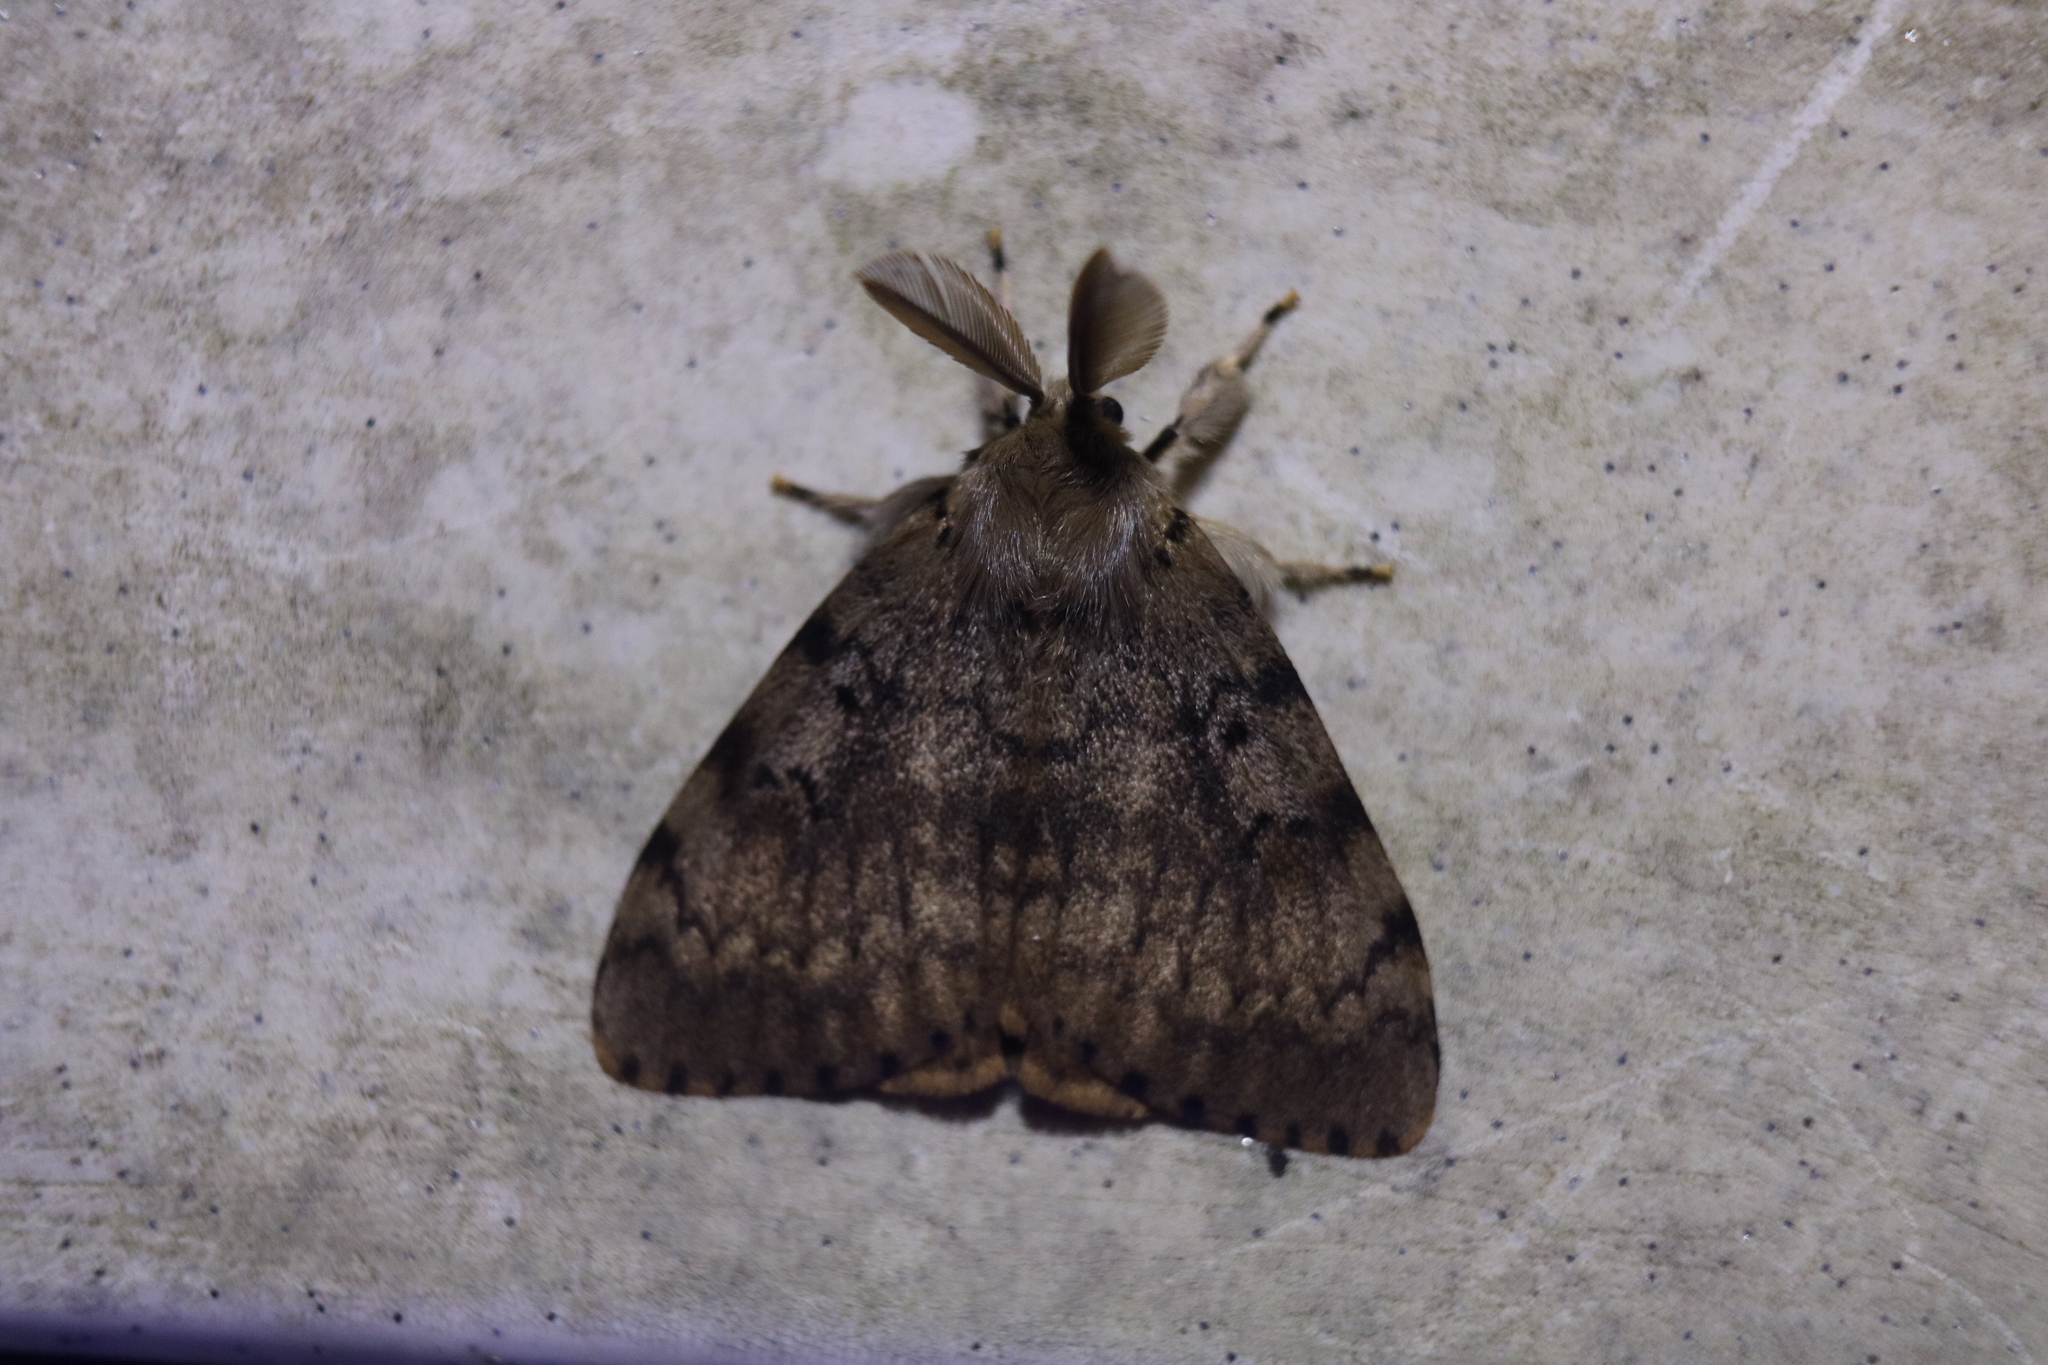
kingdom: Animalia
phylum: Arthropoda
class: Insecta
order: Lepidoptera
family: Erebidae
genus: Lymantria
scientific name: Lymantria dispar
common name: Gypsy moth
